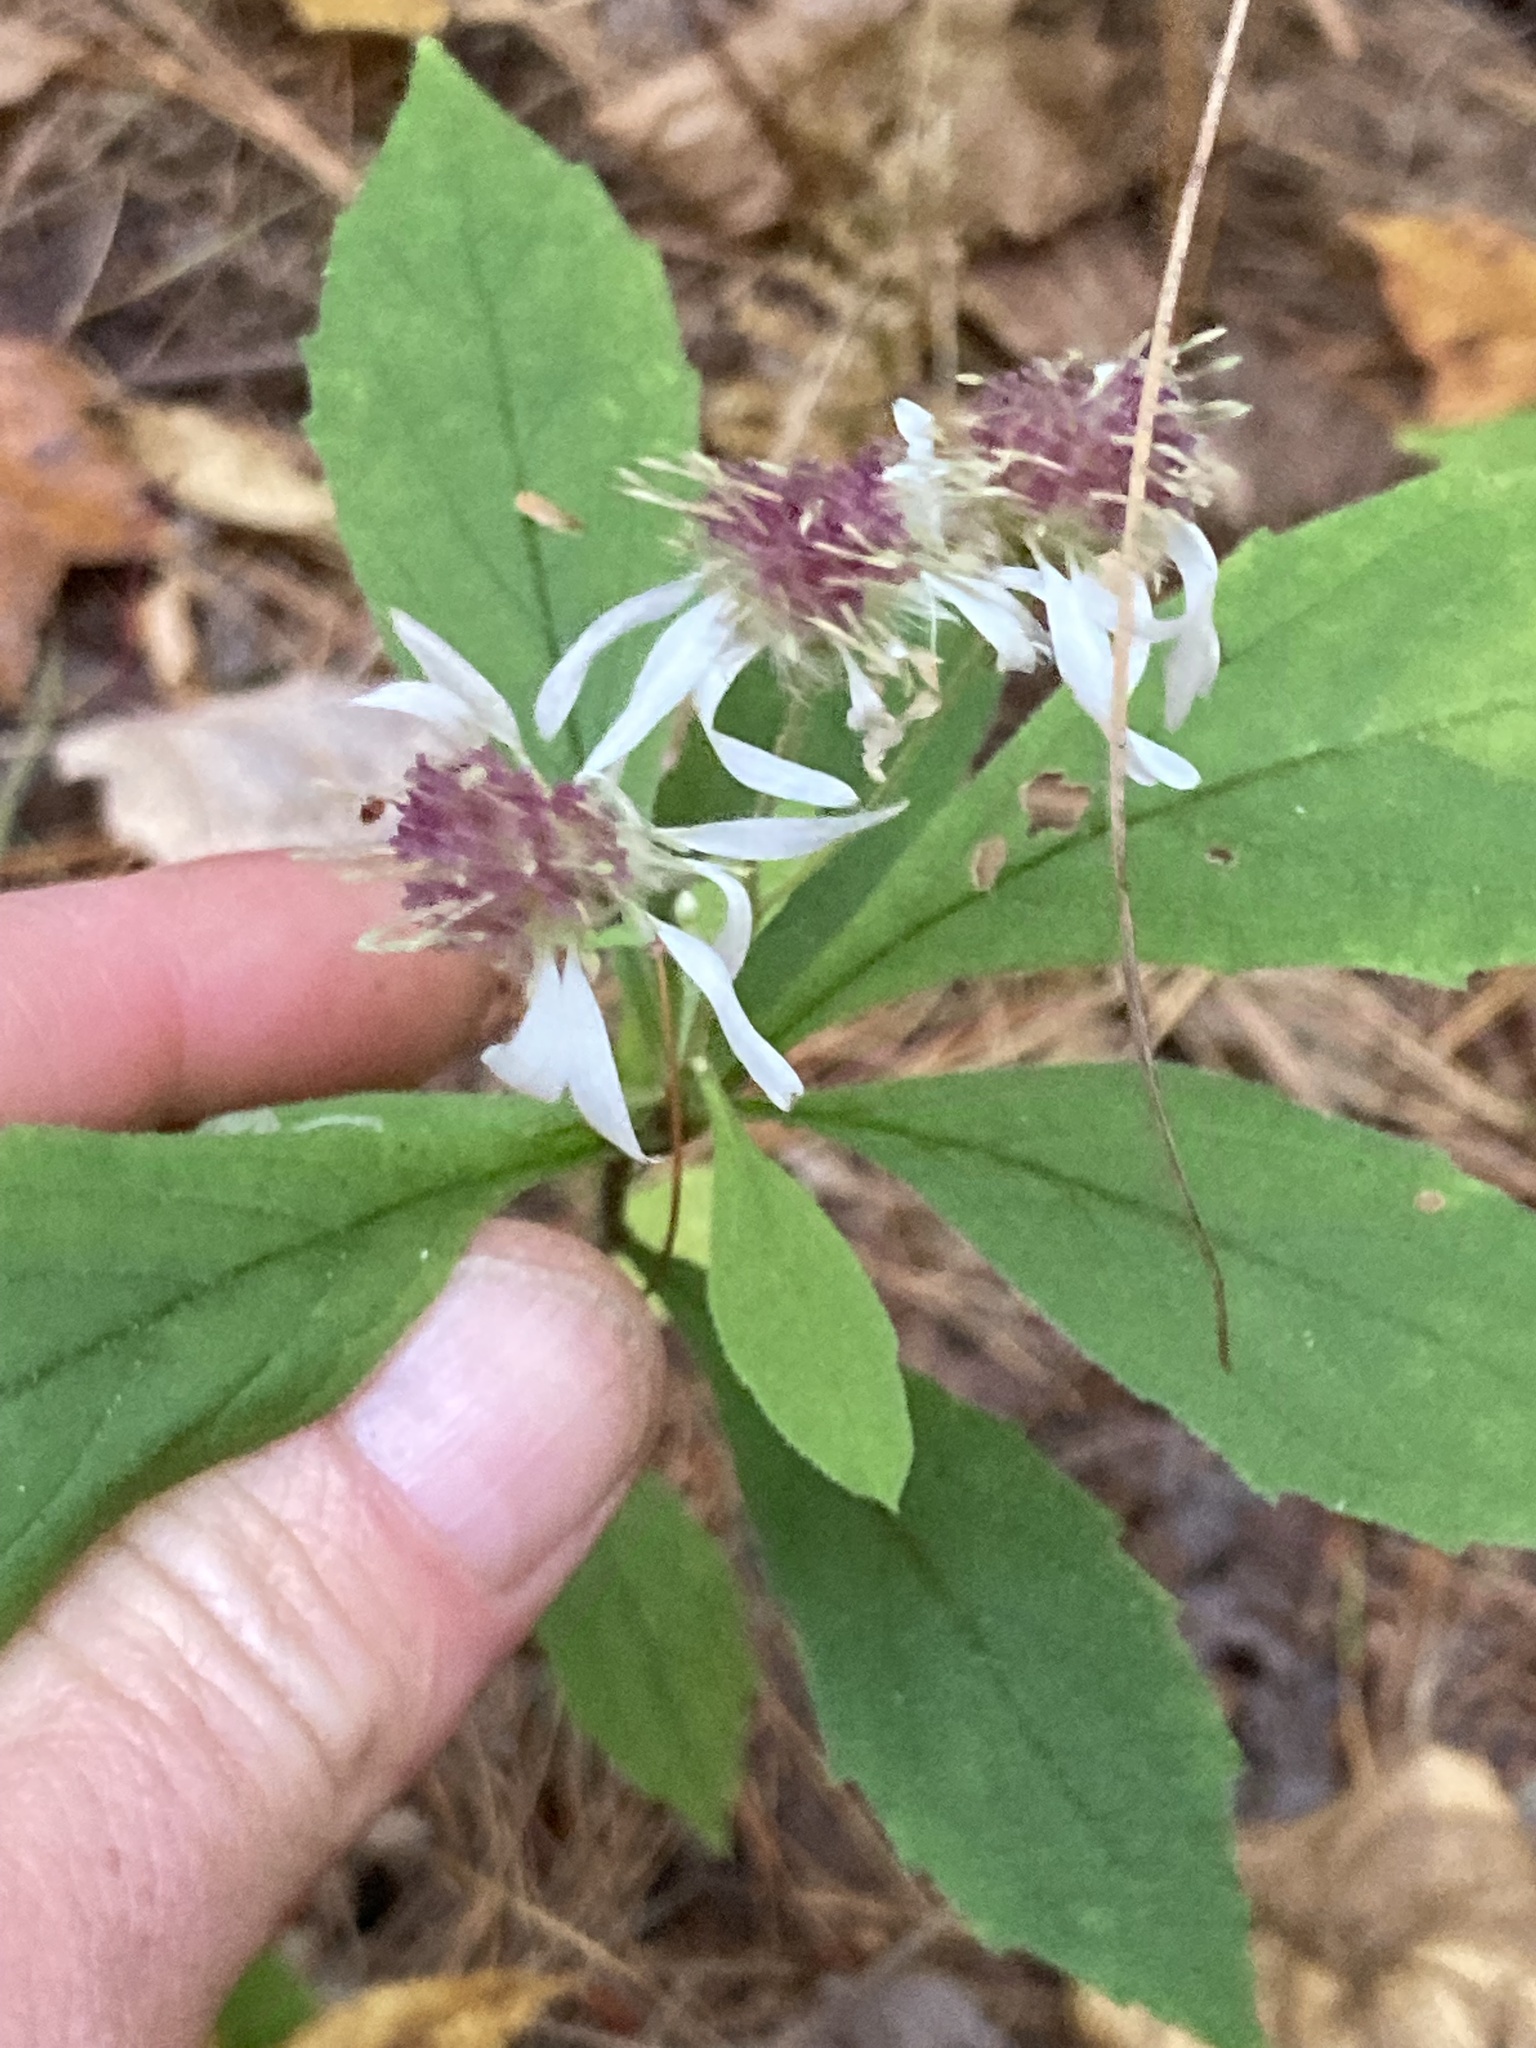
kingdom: Plantae
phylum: Tracheophyta
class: Magnoliopsida
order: Asterales
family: Asteraceae
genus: Oclemena
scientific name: Oclemena acuminata
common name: Mountain aster
